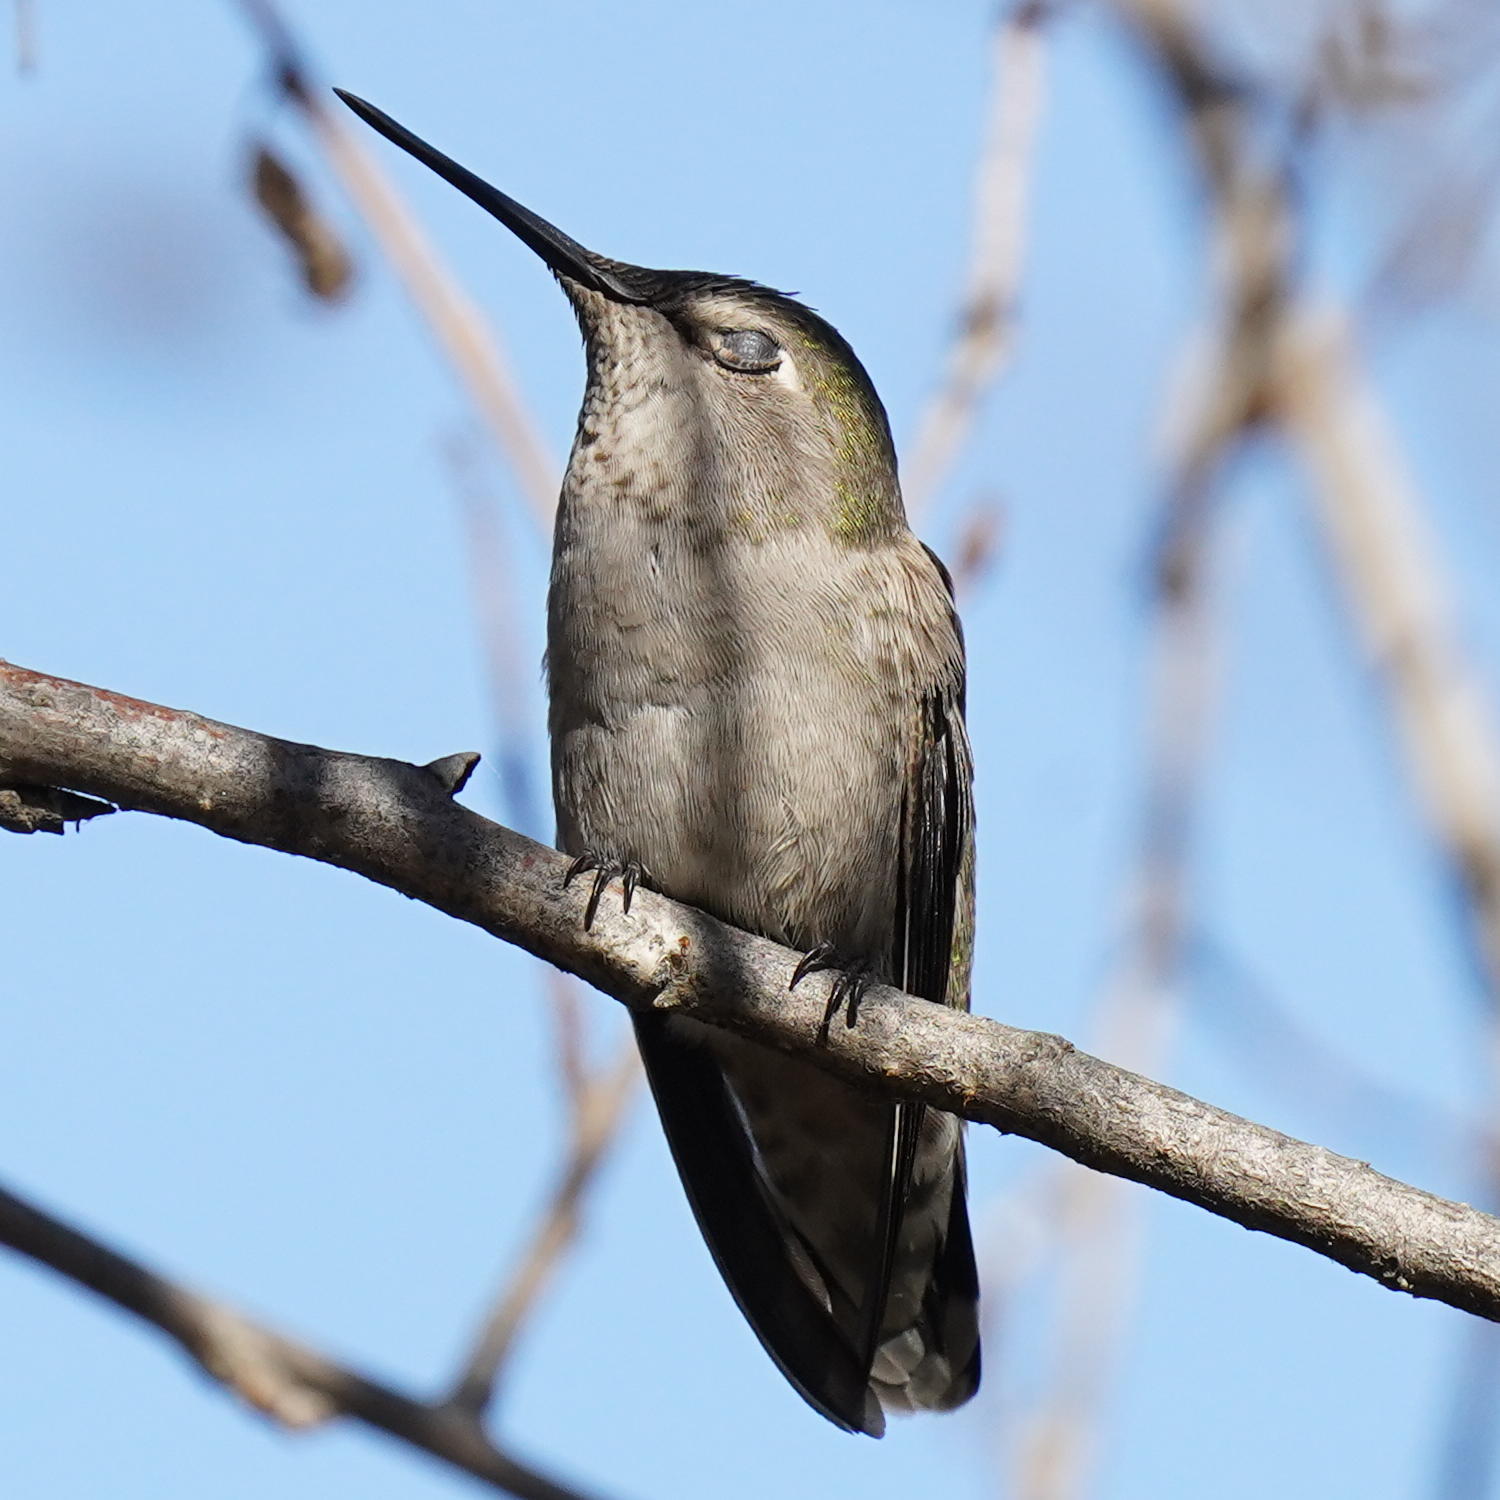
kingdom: Animalia
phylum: Chordata
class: Aves
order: Apodiformes
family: Trochilidae
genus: Calypte
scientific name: Calypte anna
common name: Anna's hummingbird
